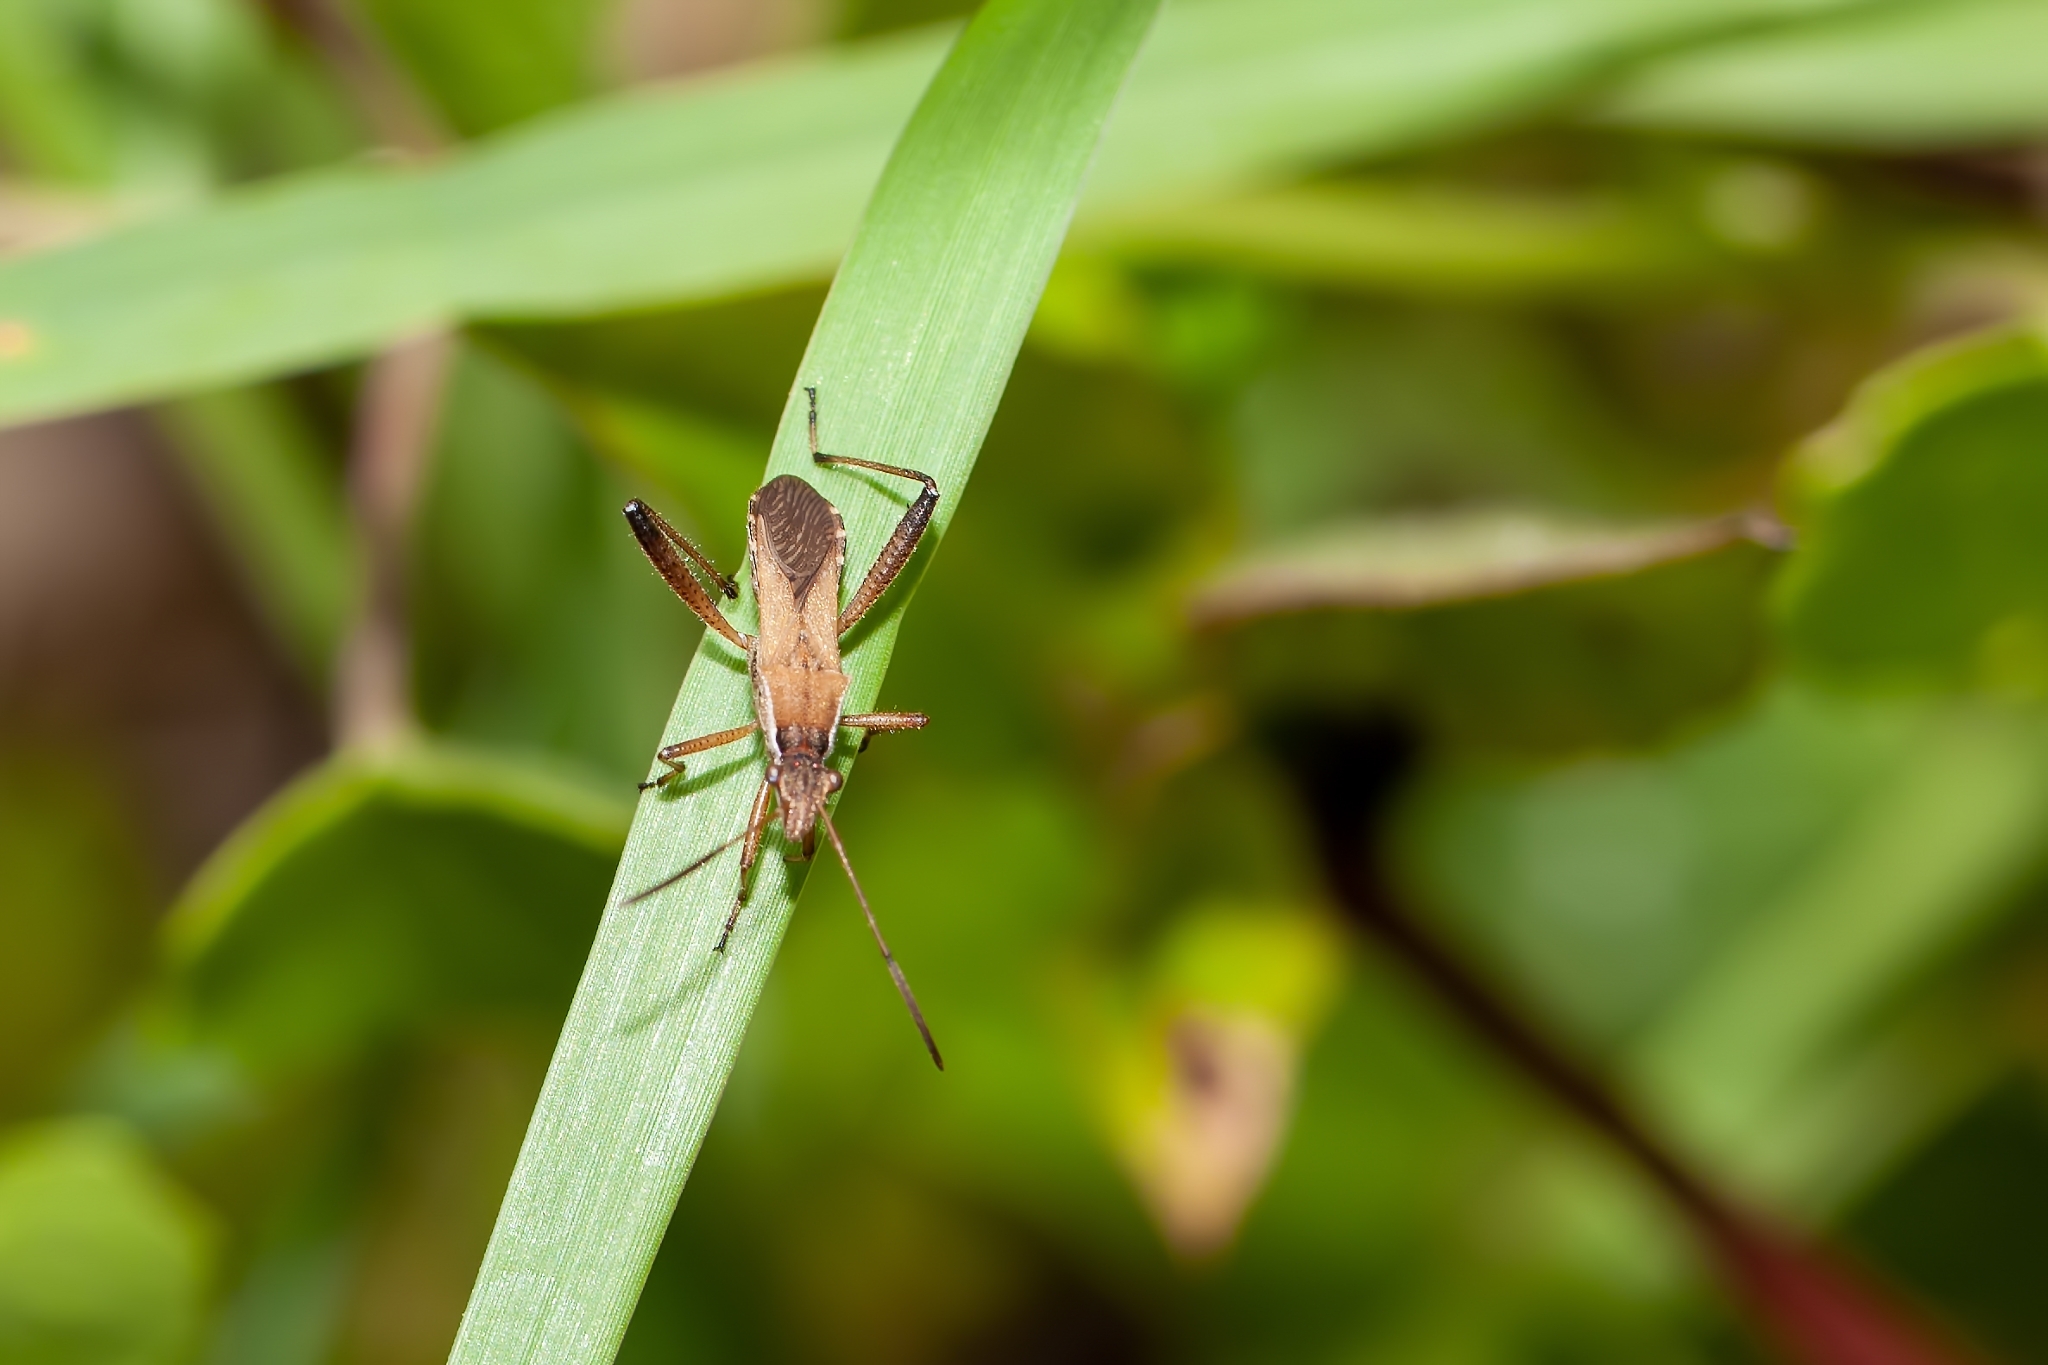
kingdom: Animalia
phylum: Arthropoda
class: Insecta
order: Hemiptera
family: Alydidae
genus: Alydus
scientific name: Alydus pilosulus
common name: Broad-headed bug
